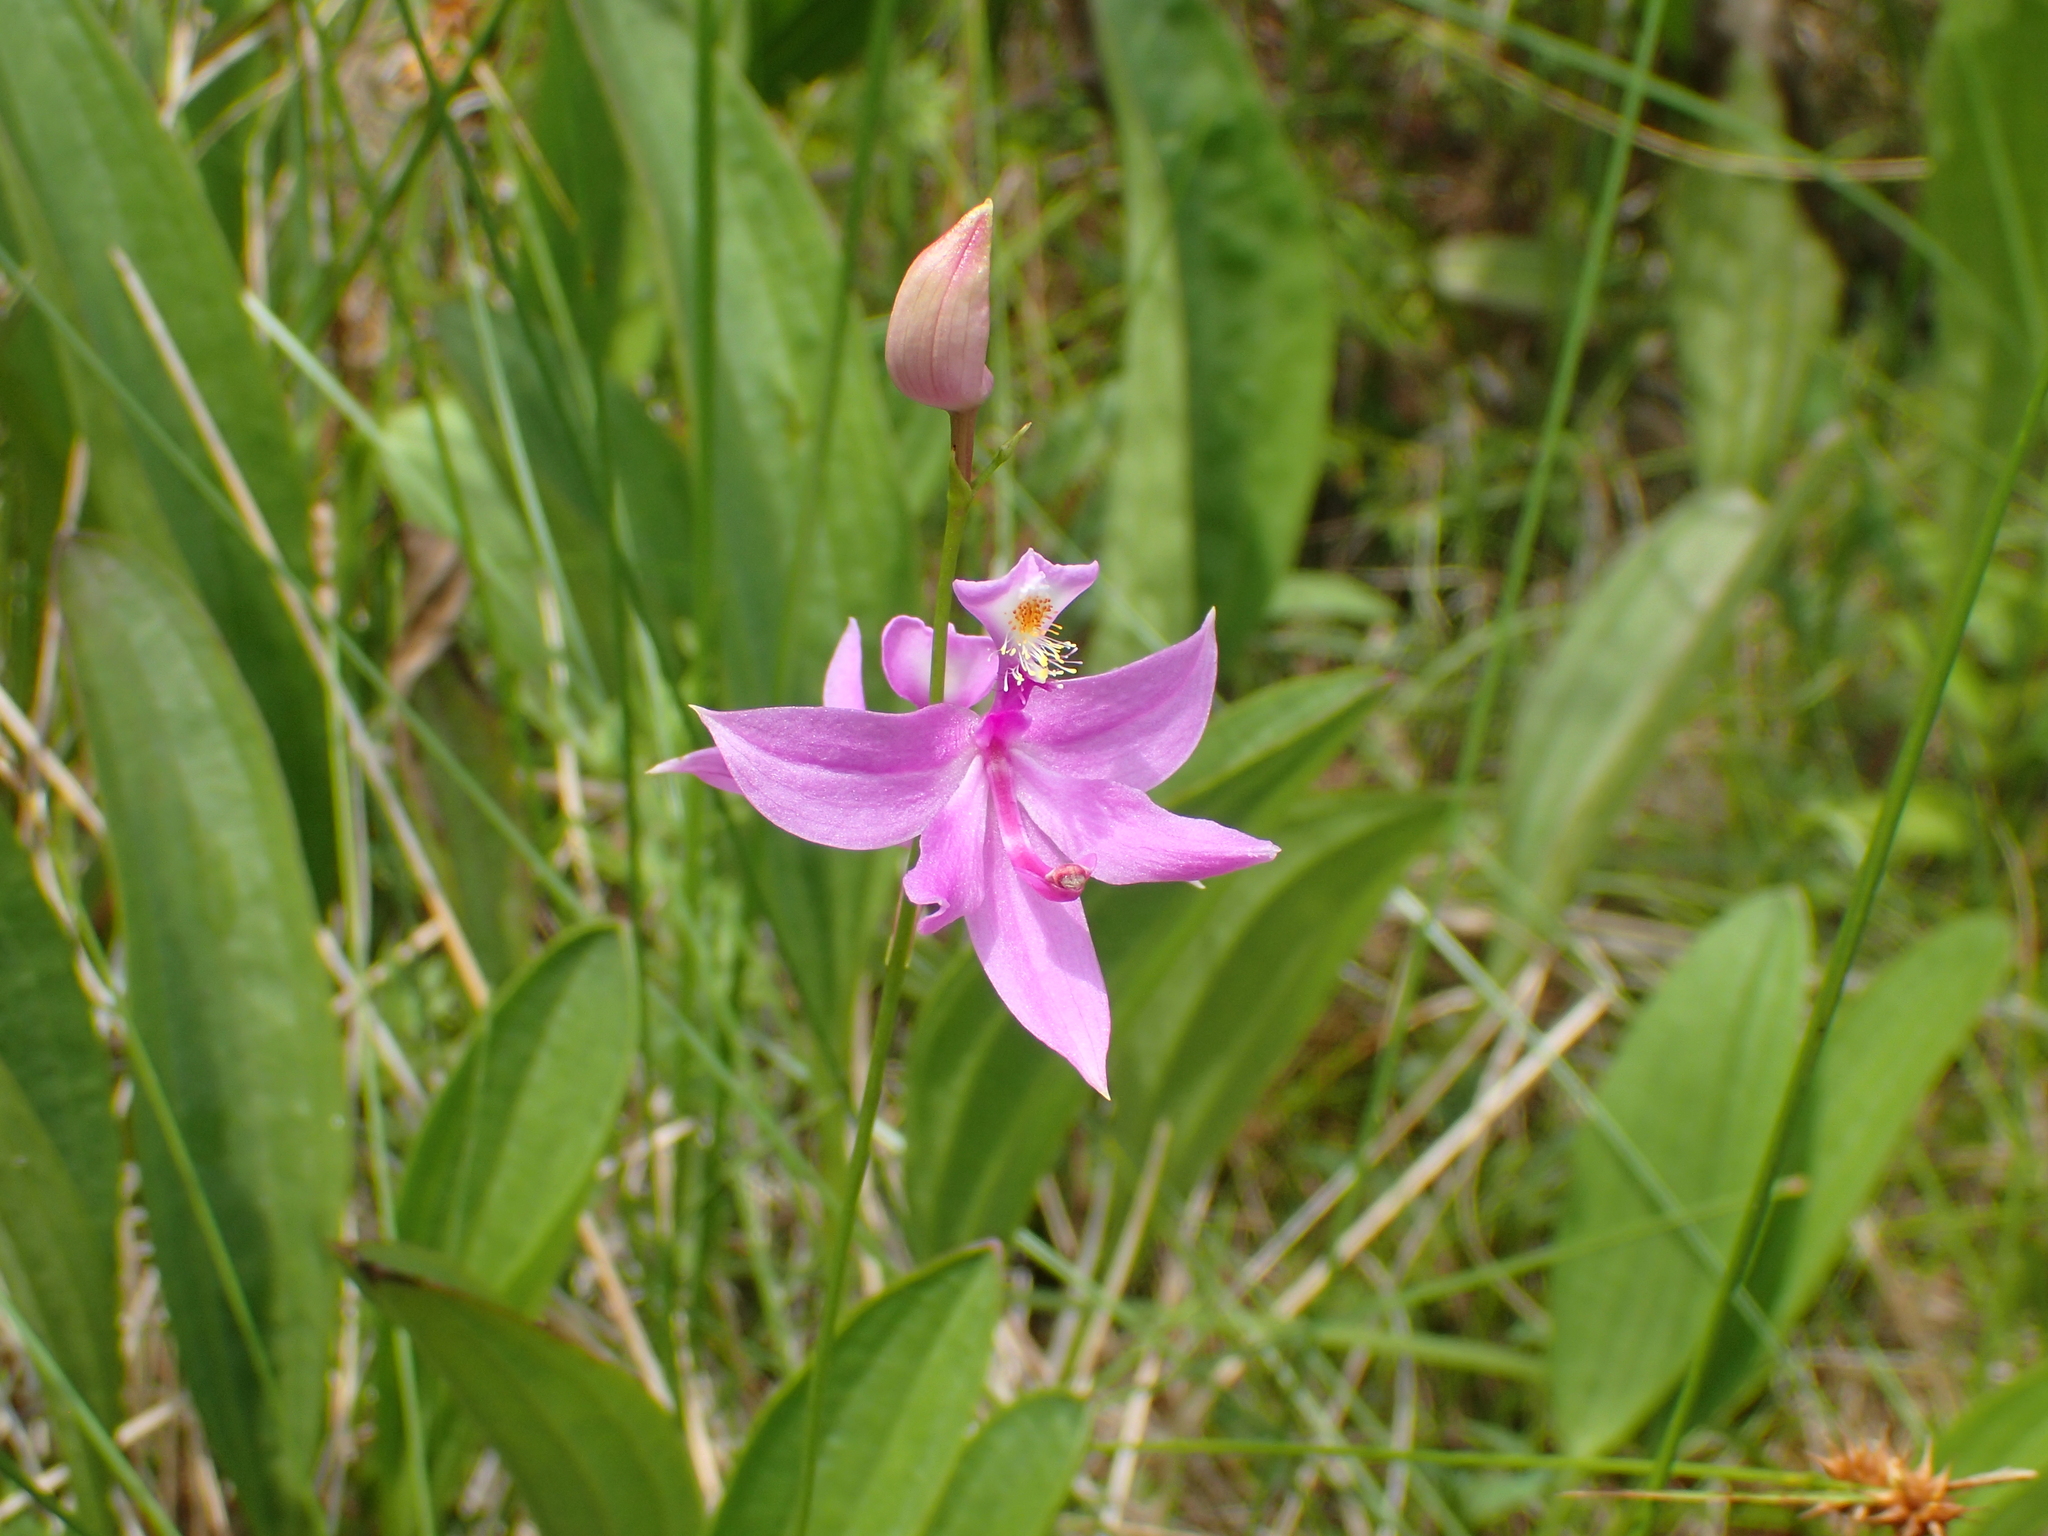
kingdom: Plantae
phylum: Tracheophyta
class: Liliopsida
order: Asparagales
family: Orchidaceae
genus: Calopogon
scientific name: Calopogon tuberosus
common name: Grass-pink
